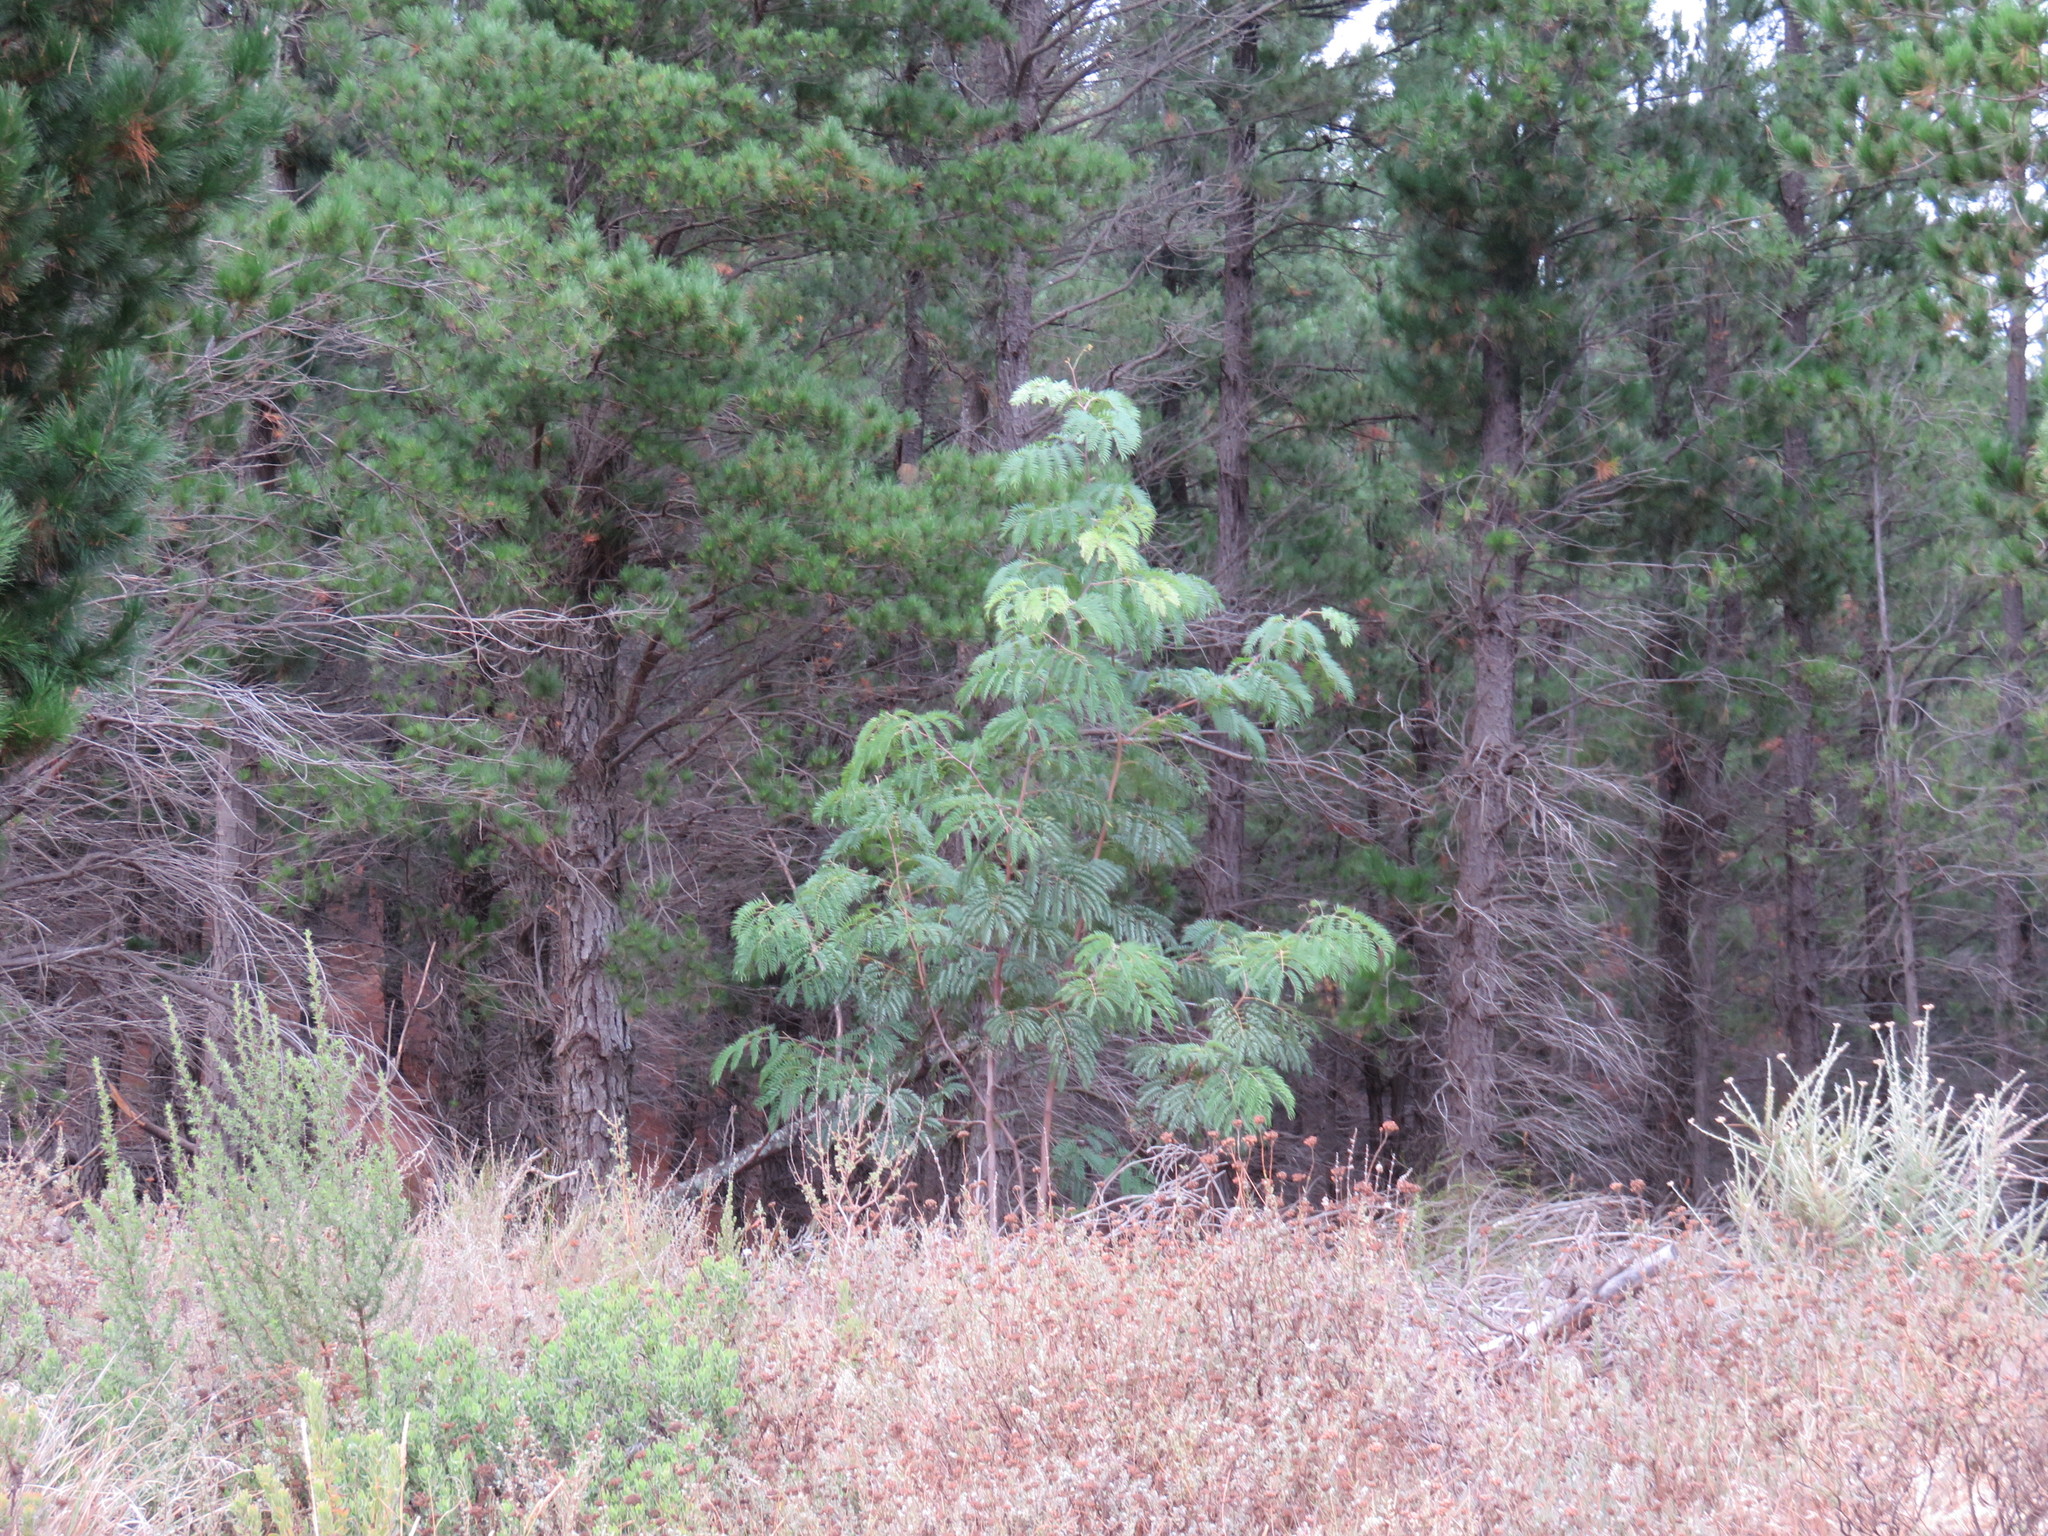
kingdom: Plantae
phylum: Tracheophyta
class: Magnoliopsida
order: Fabales
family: Fabaceae
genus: Acacia
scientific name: Acacia elata
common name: Cedar wattle
